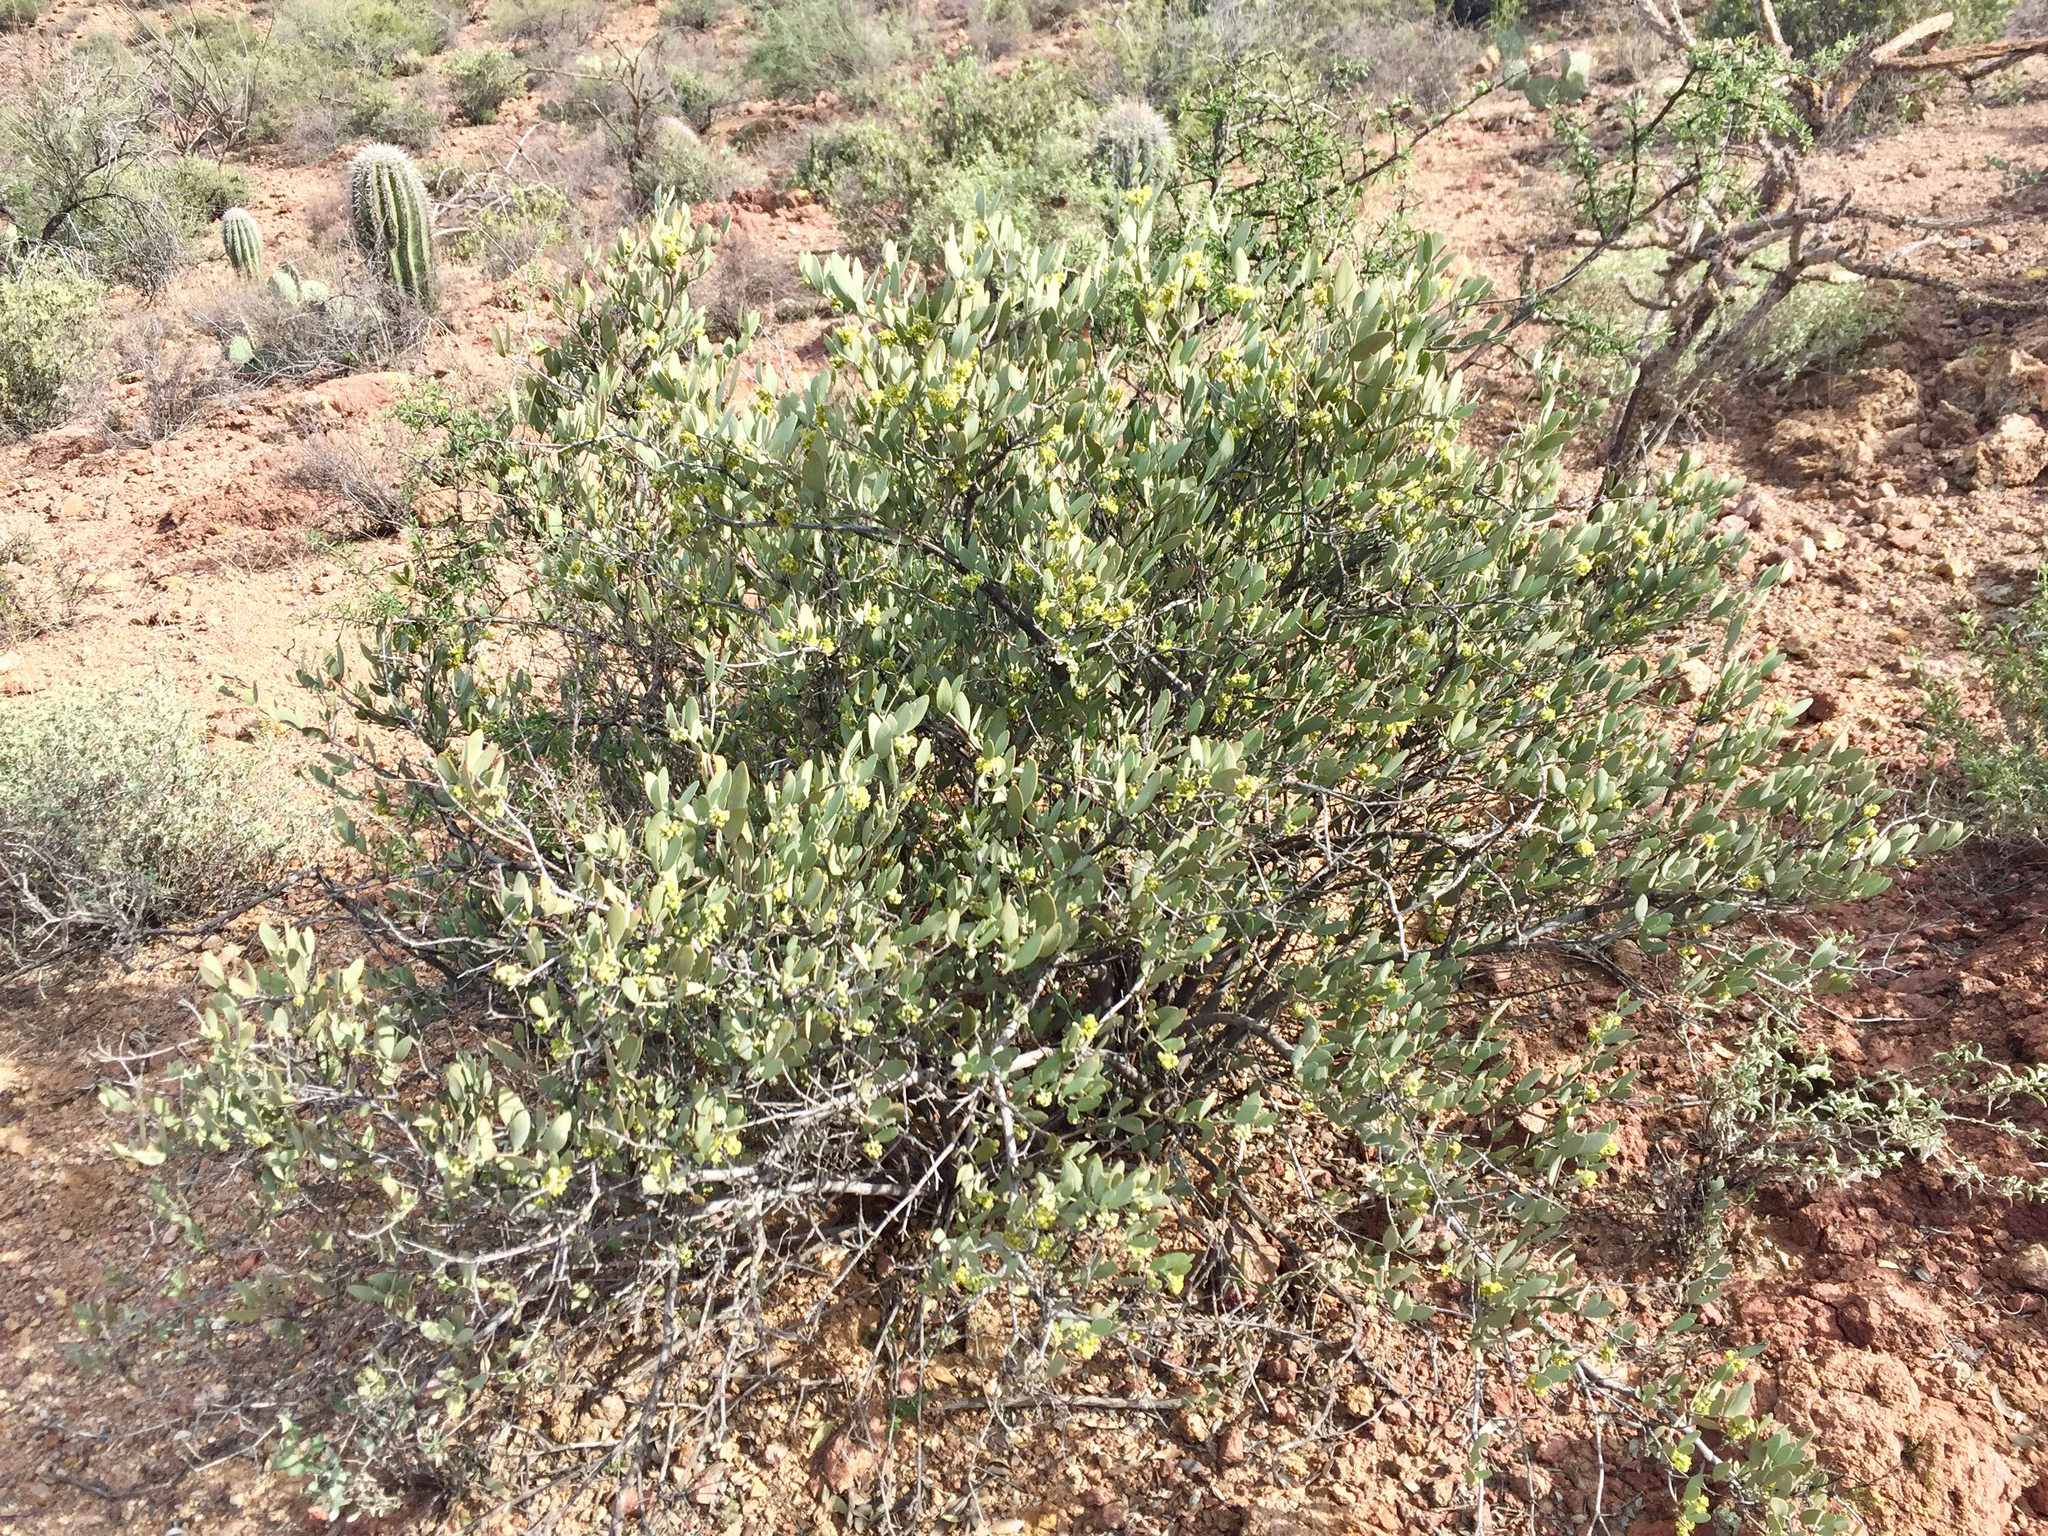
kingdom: Plantae
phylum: Tracheophyta
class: Magnoliopsida
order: Caryophyllales
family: Simmondsiaceae
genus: Simmondsia
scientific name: Simmondsia chinensis
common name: Jojoba
